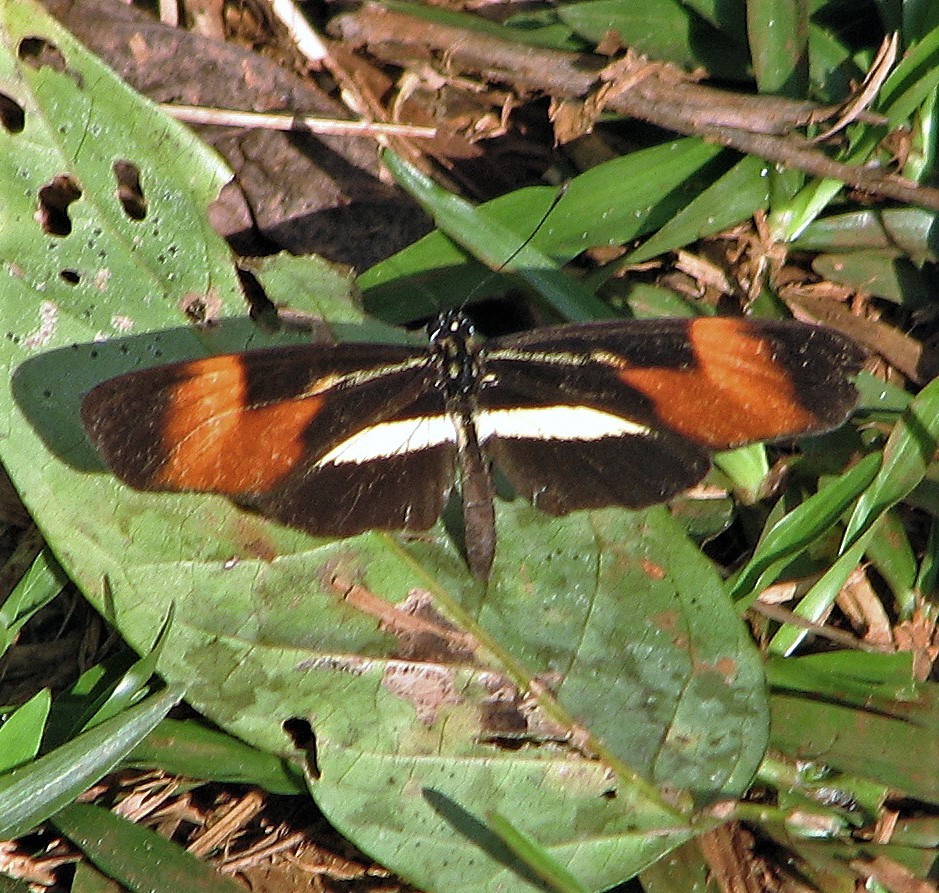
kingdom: Animalia
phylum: Arthropoda
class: Insecta
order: Lepidoptera
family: Nymphalidae
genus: Eresia
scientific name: Eresia lansdorfi
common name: Lansdorf's crescent
